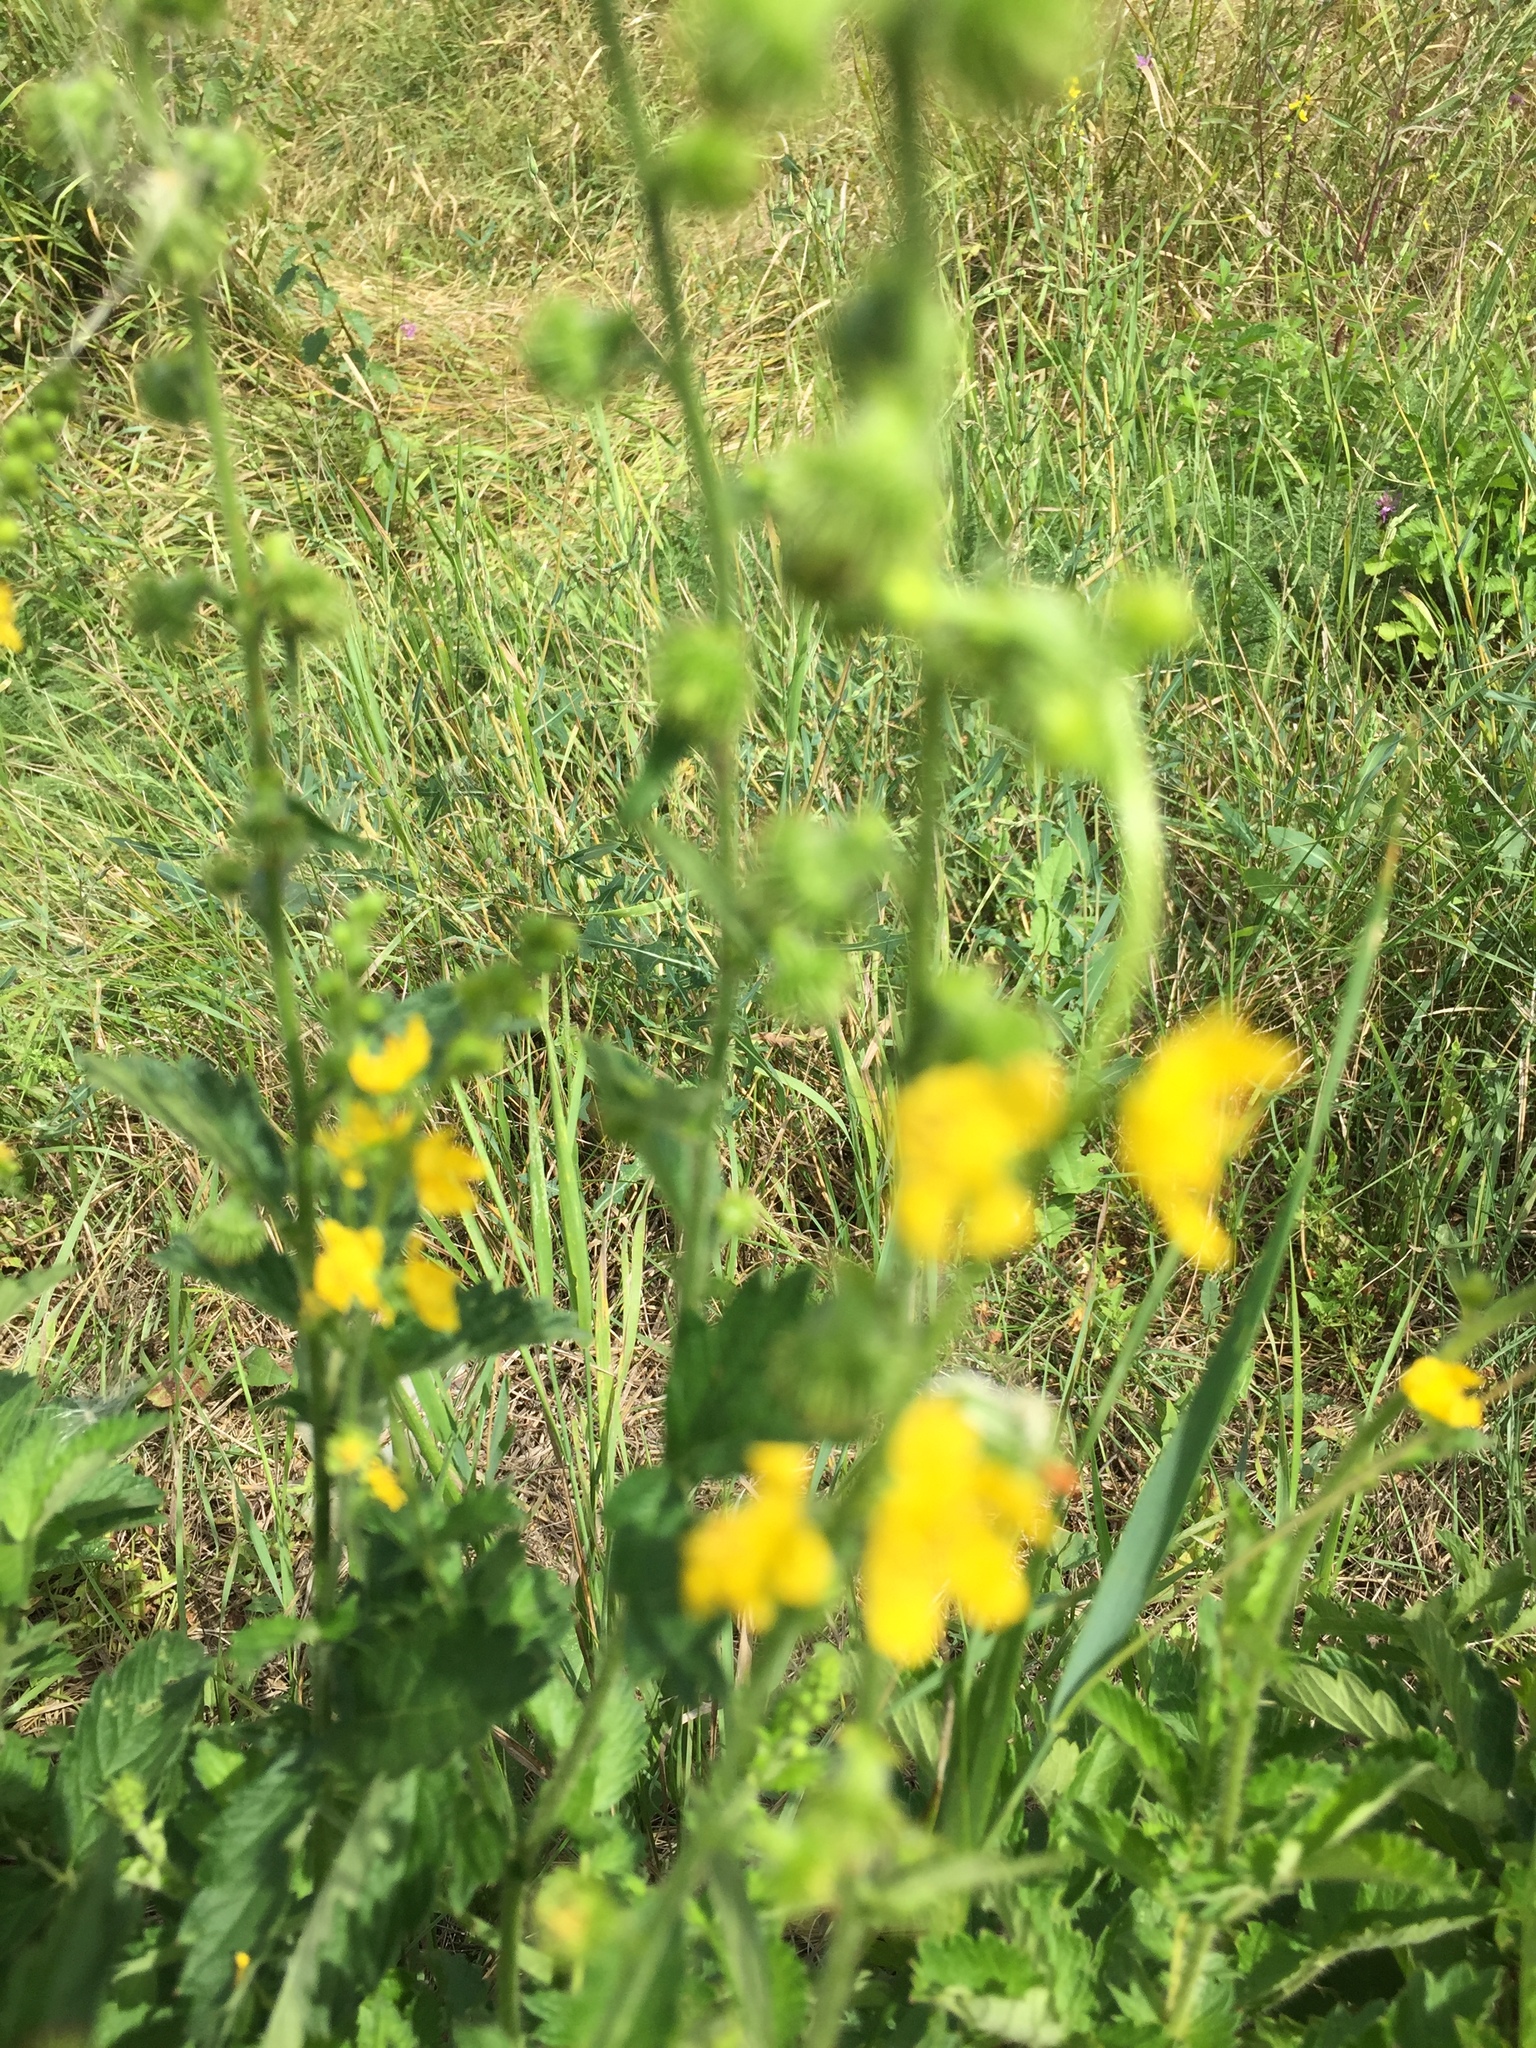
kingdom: Plantae
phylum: Tracheophyta
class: Magnoliopsida
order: Rosales
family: Rosaceae
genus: Agrimonia
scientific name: Agrimonia eupatoria
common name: Agrimony
